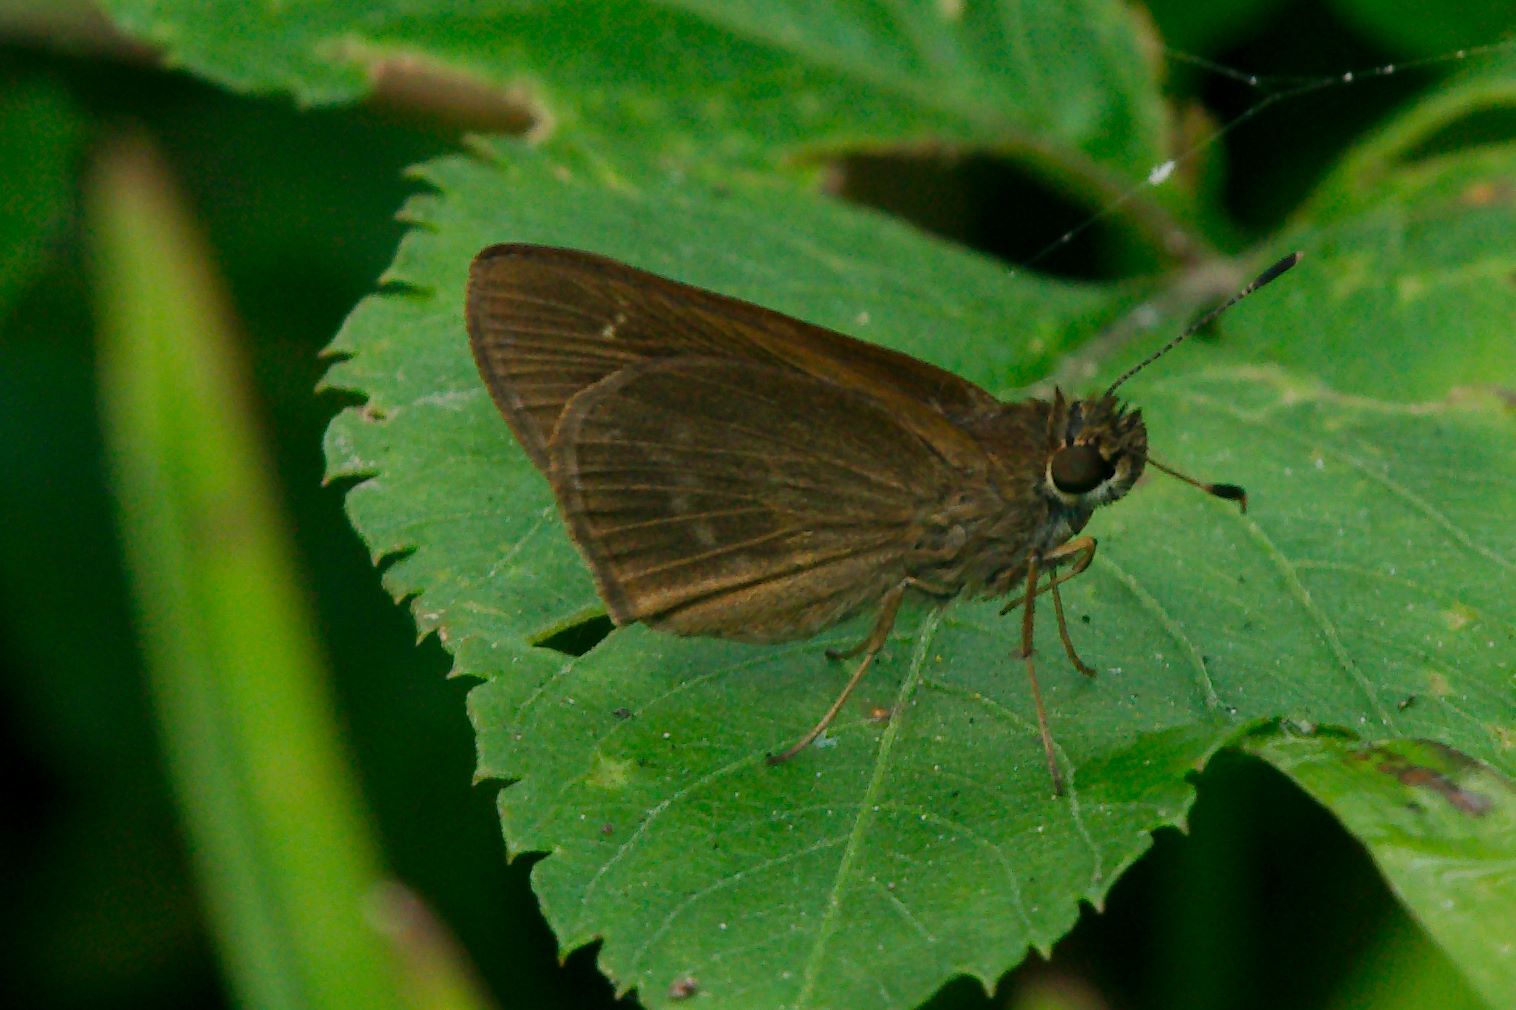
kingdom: Animalia
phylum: Arthropoda
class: Insecta
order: Lepidoptera
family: Hesperiidae
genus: Cymaenes
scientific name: Cymaenes tripunctus
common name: Dingy dotted skipper
